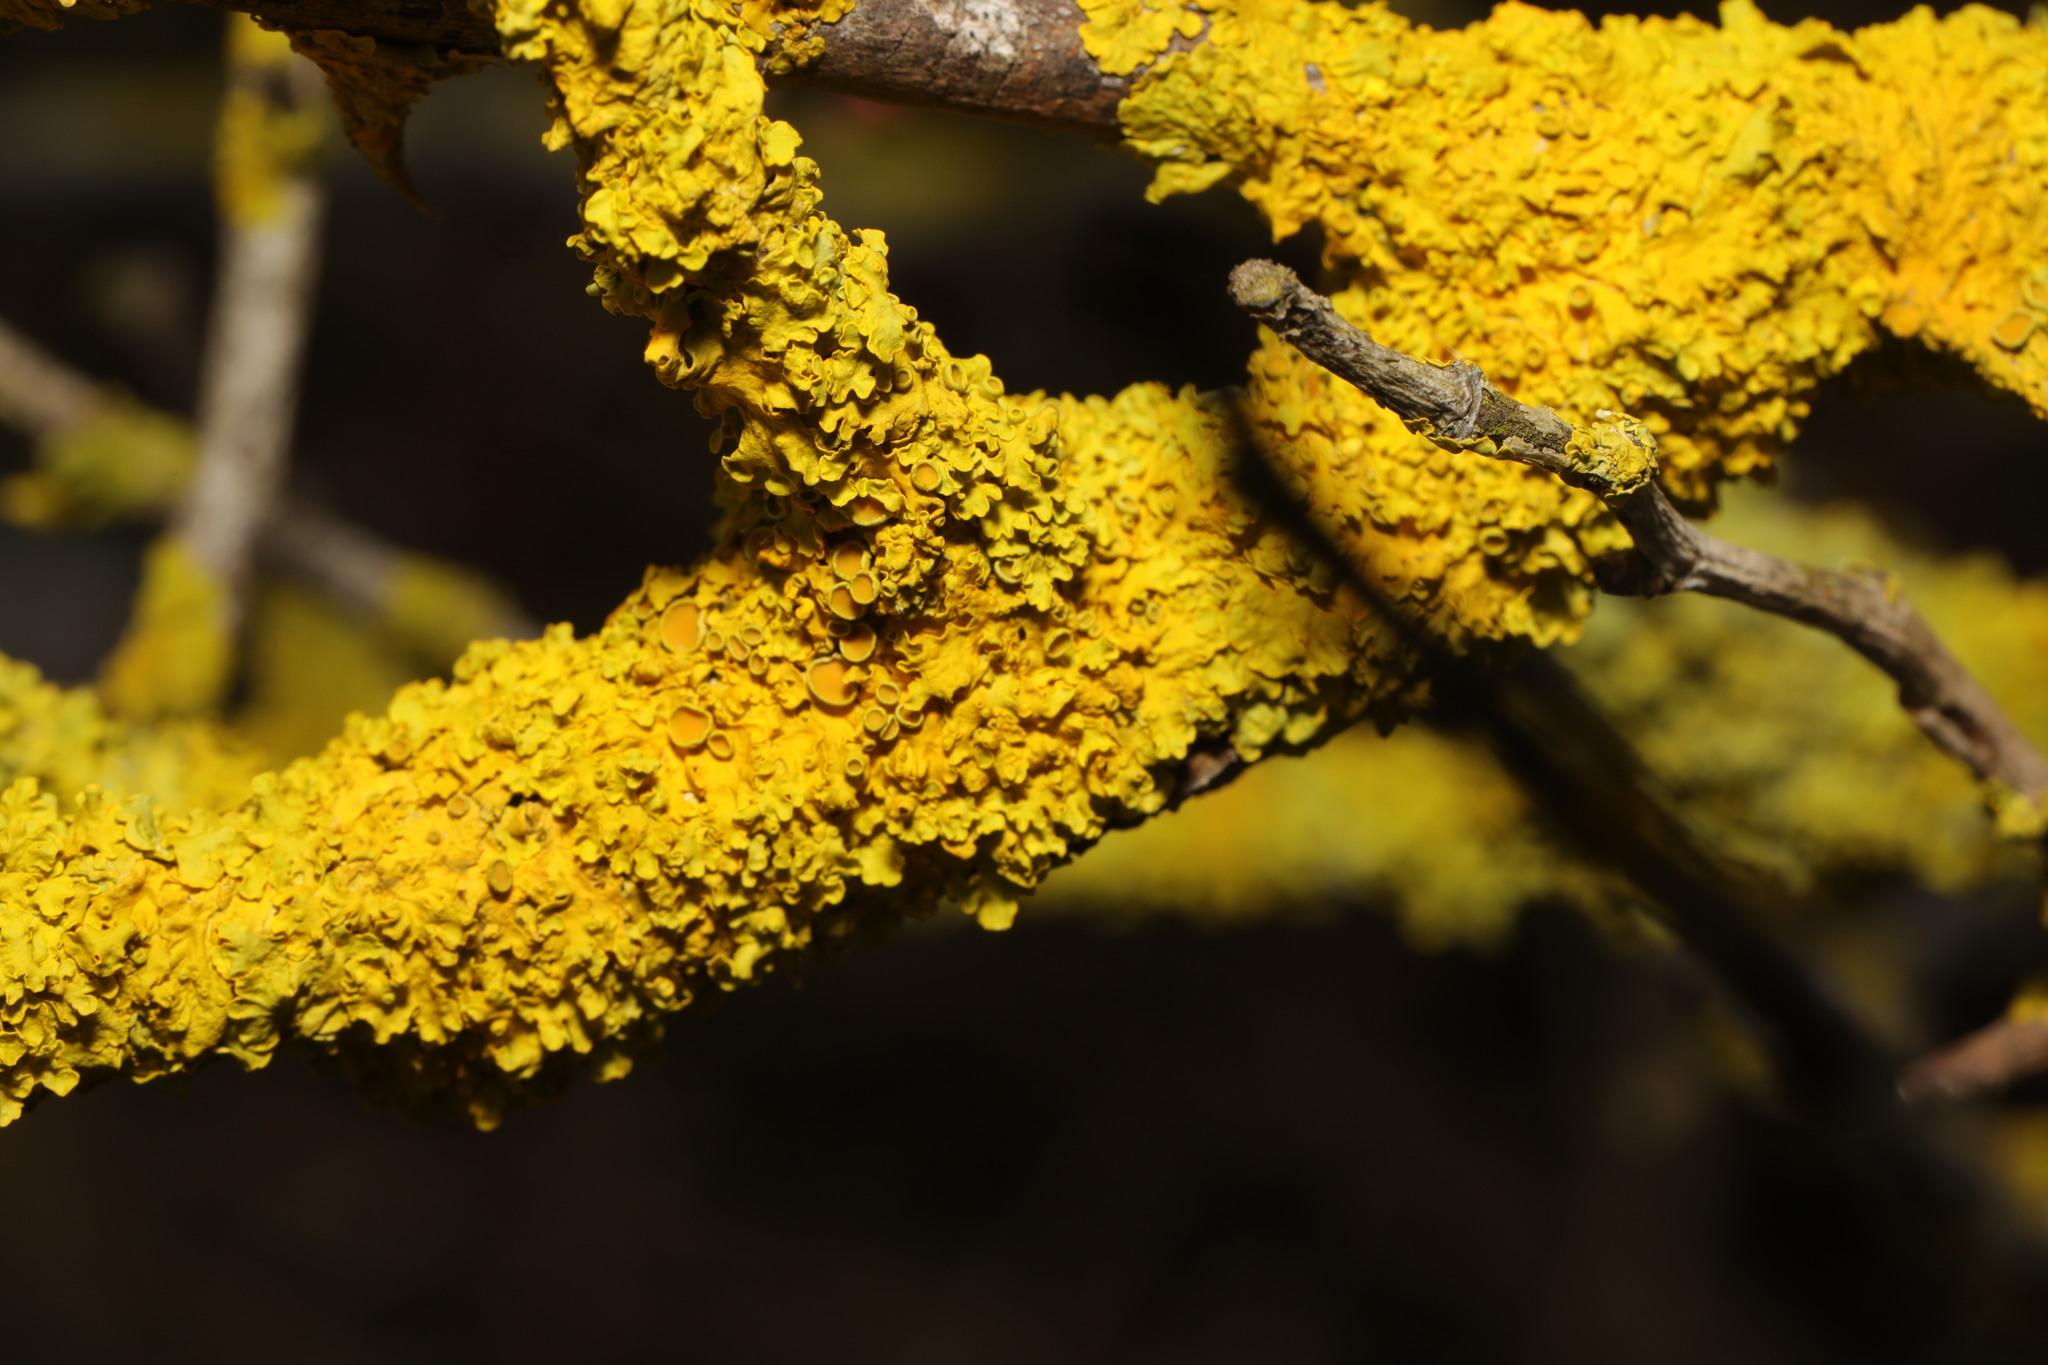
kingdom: Fungi
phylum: Ascomycota
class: Lecanoromycetes
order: Teloschistales
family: Teloschistaceae
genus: Xanthoria
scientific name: Xanthoria parietina
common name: Common orange lichen
